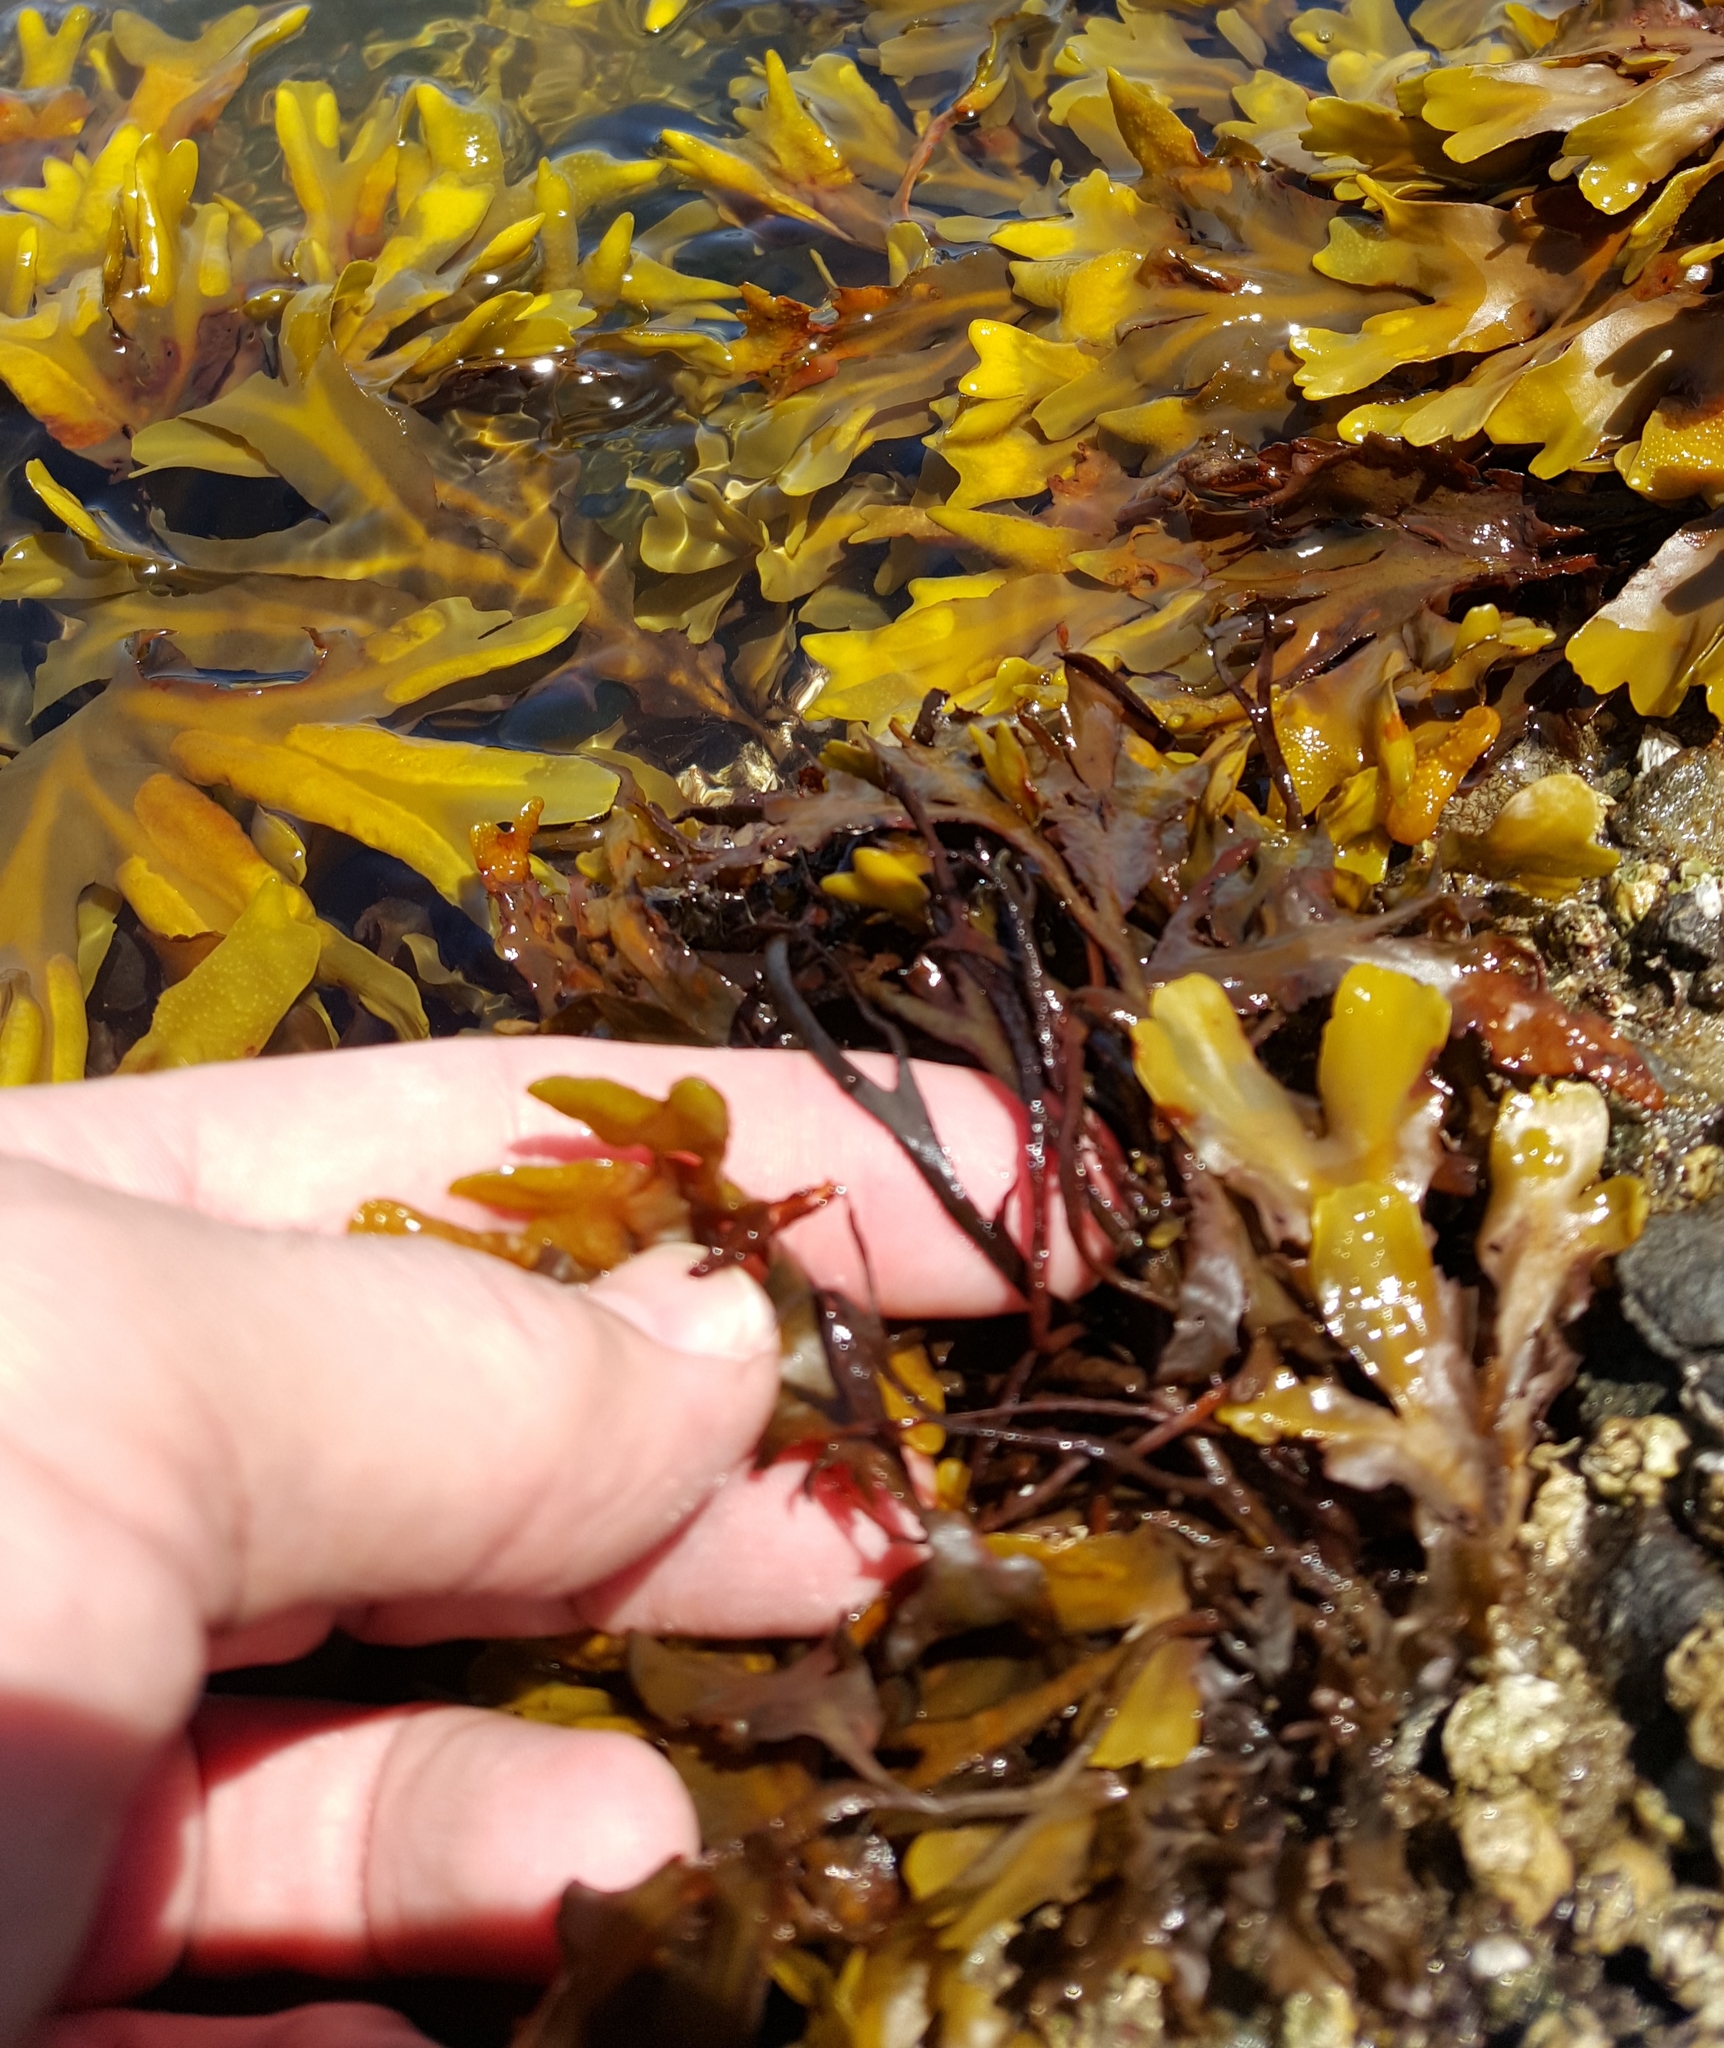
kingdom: Chromista
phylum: Ochrophyta
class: Phaeophyceae
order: Fucales
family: Fucaceae
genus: Fucus
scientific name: Fucus distichus
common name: Rockweed
